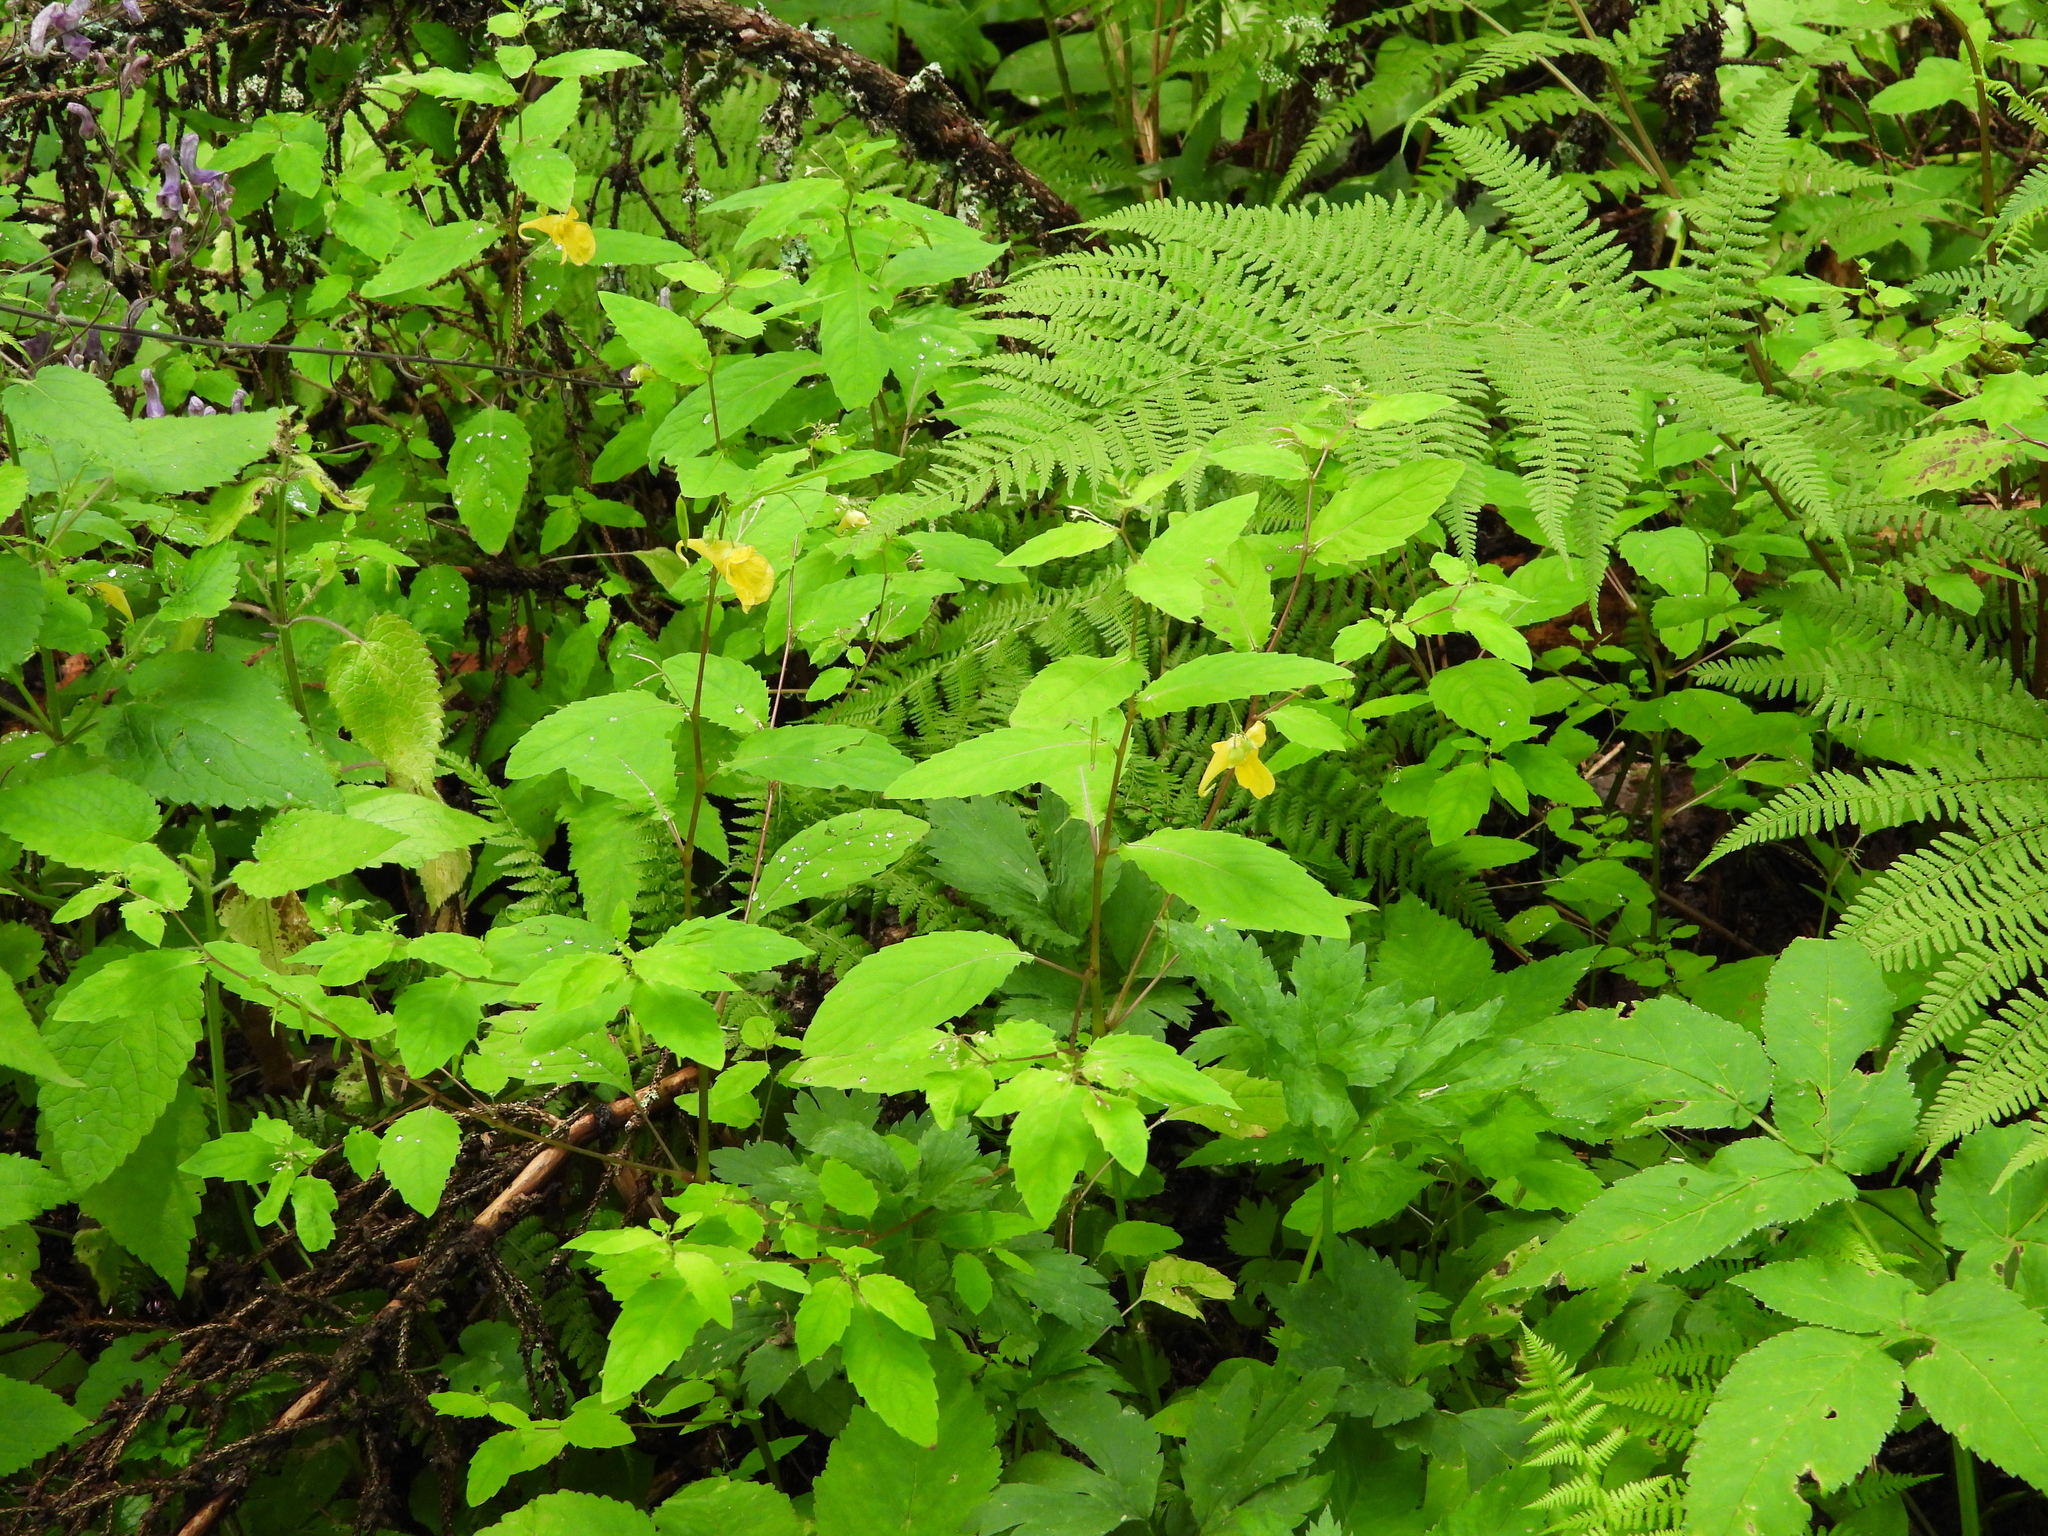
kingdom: Plantae
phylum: Tracheophyta
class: Magnoliopsida
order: Ericales
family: Balsaminaceae
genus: Impatiens
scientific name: Impatiens noli-tangere
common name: Touch-me-not balsam
